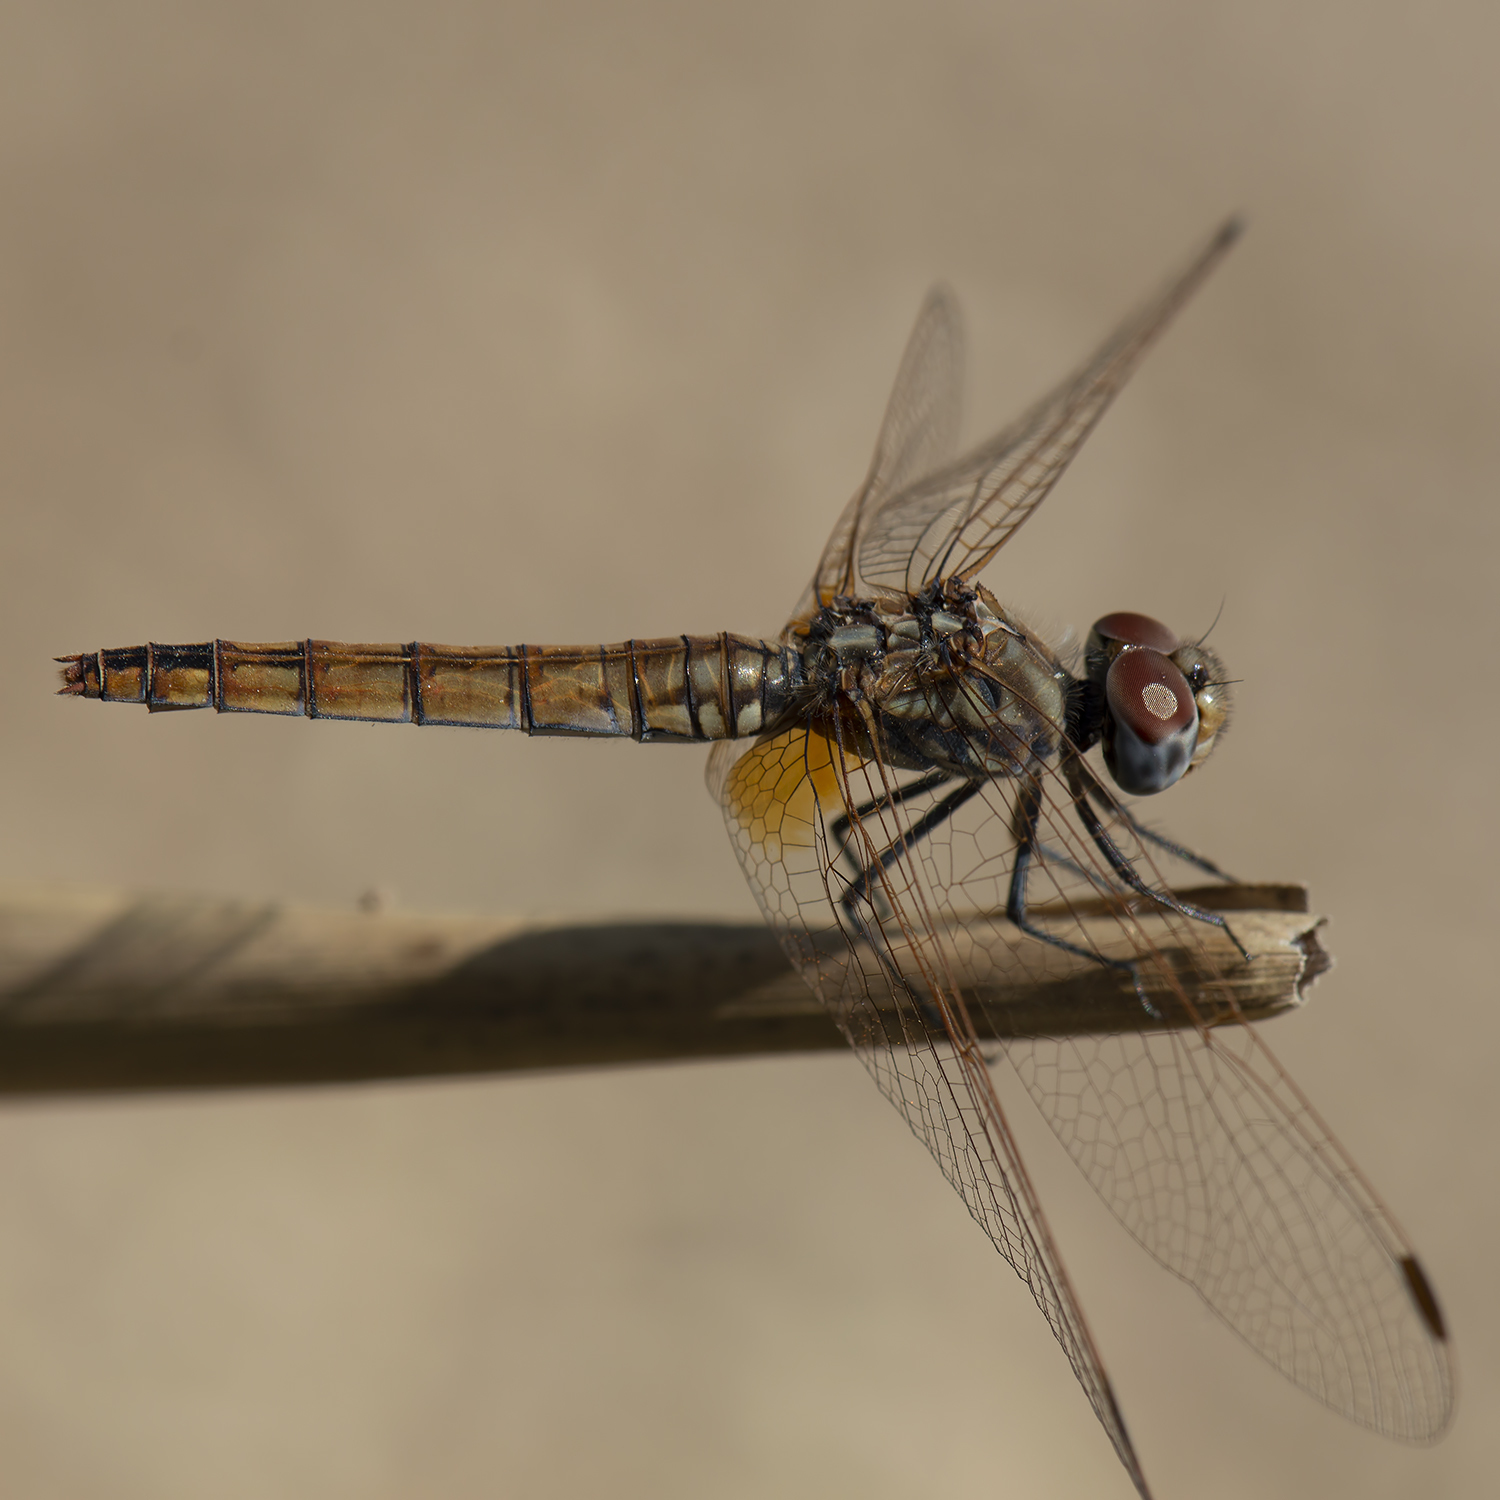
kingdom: Animalia
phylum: Arthropoda
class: Insecta
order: Odonata
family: Libellulidae
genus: Trithemis
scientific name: Trithemis annulata
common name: Violet dropwing
